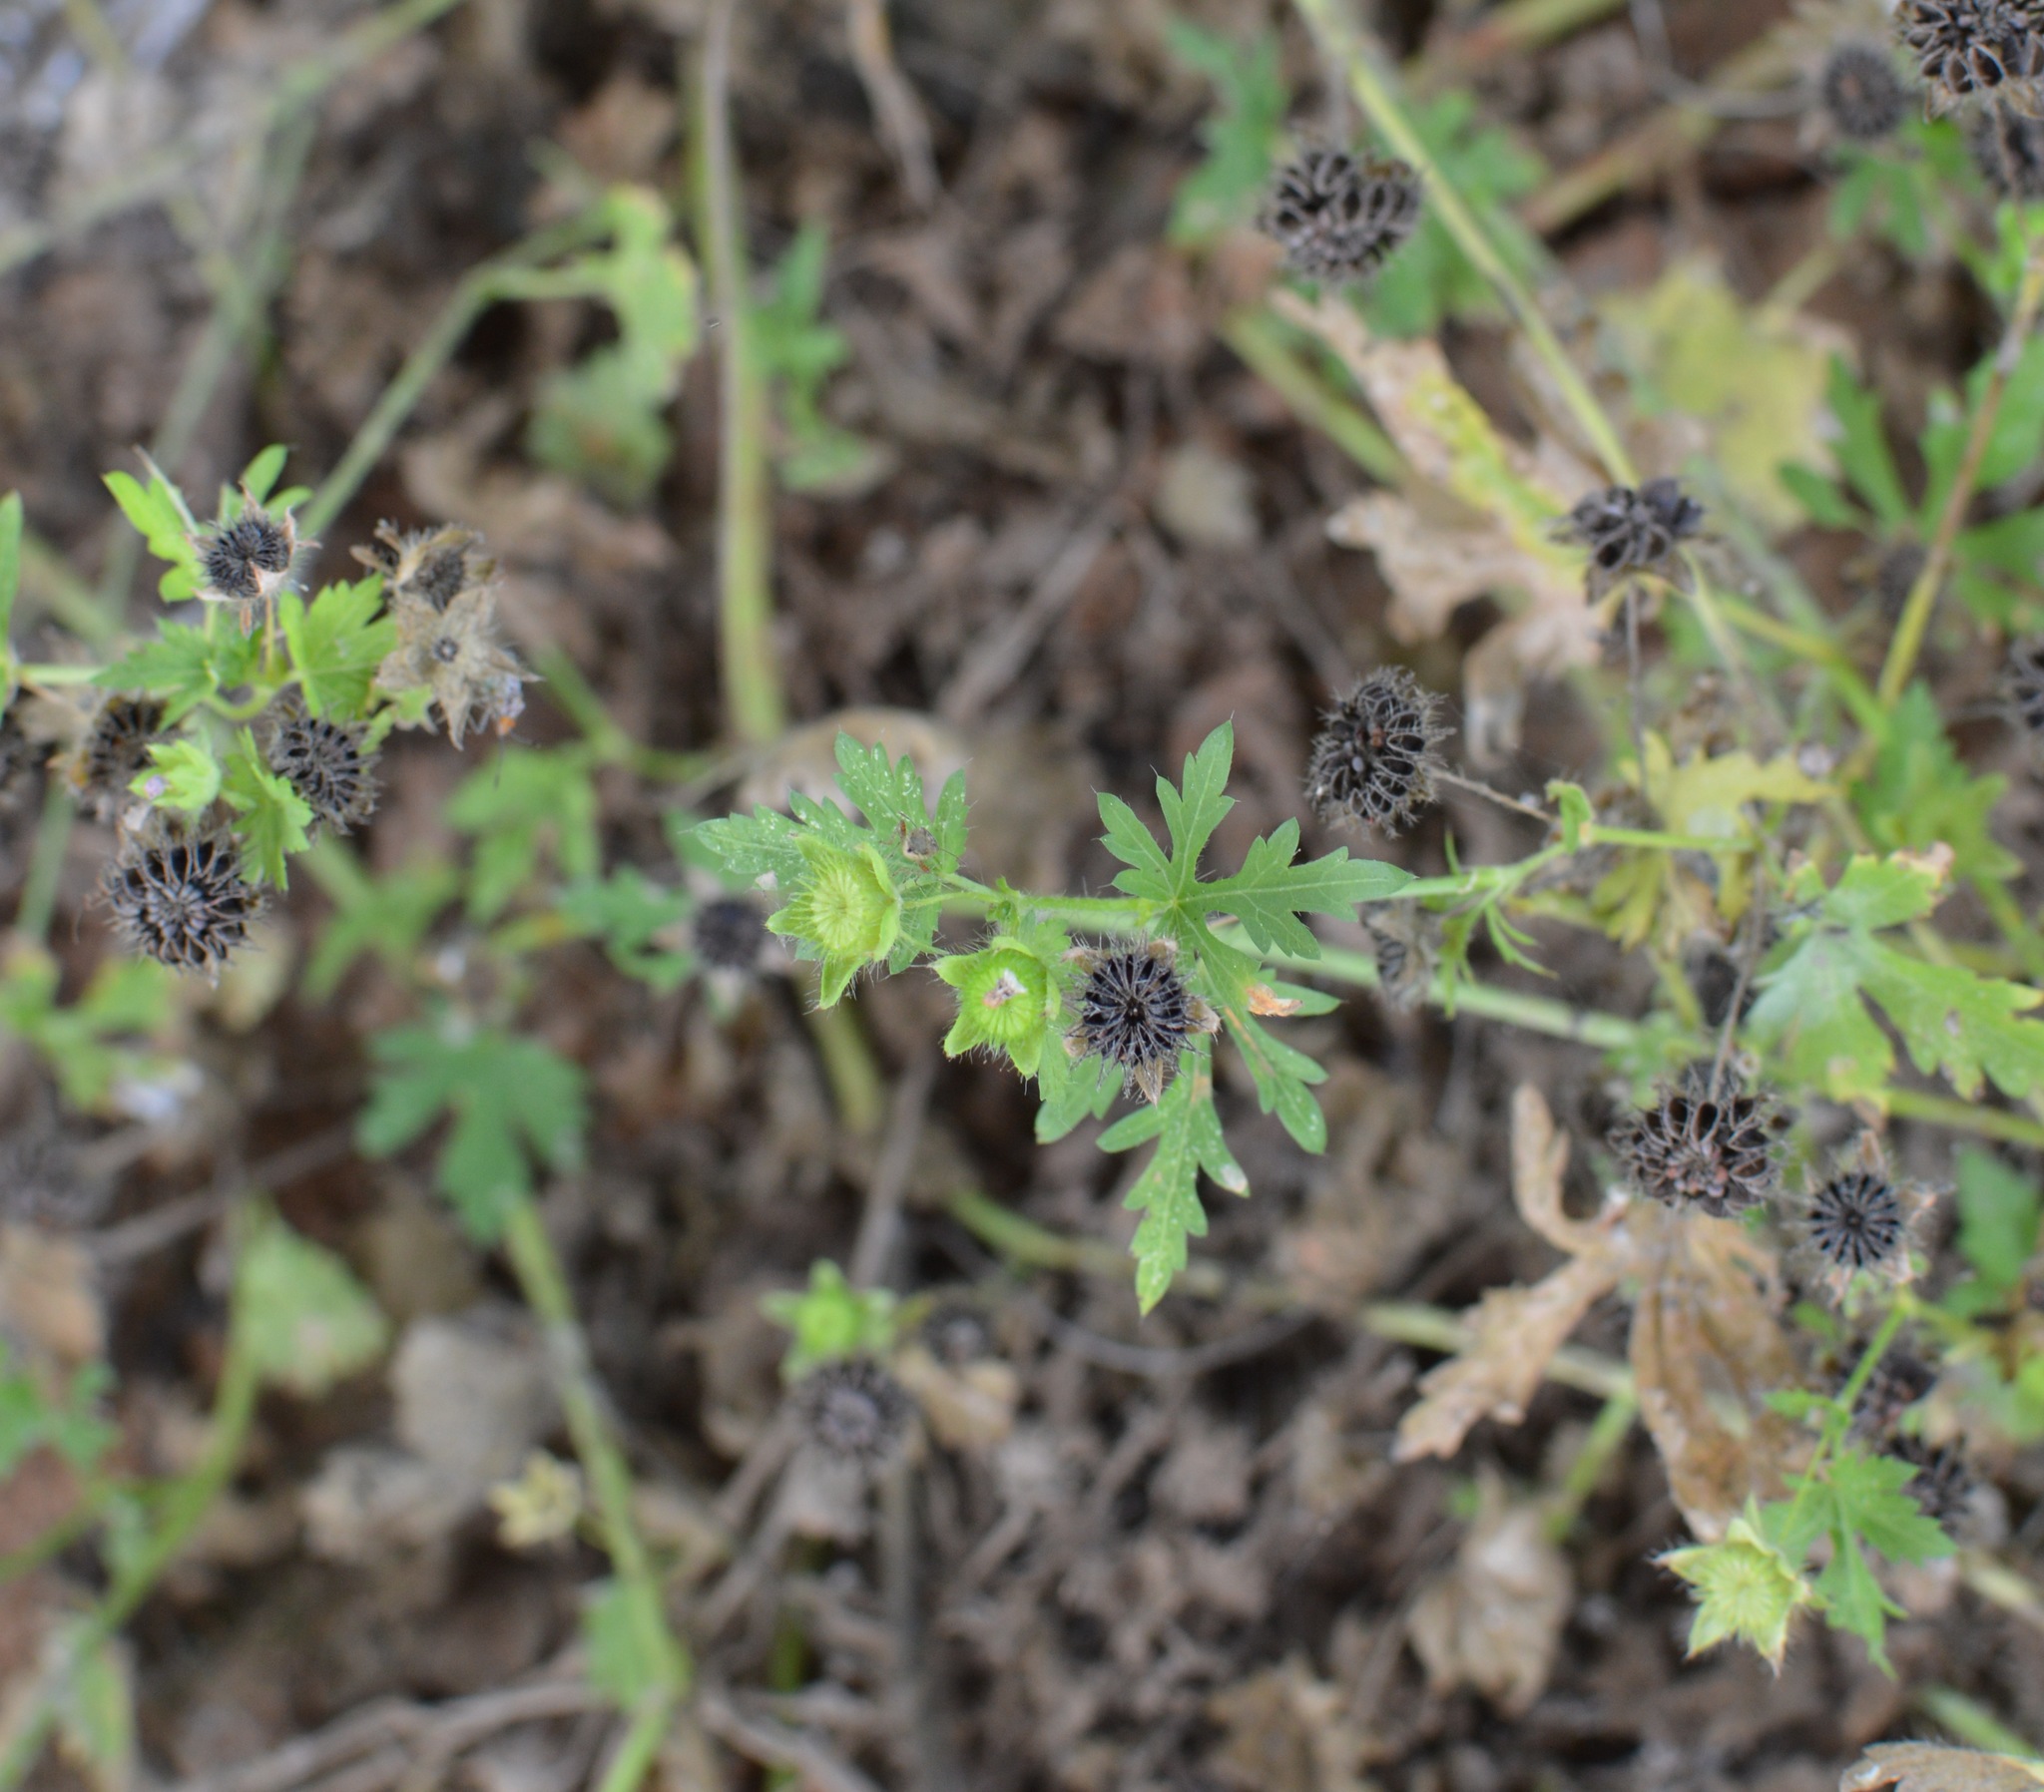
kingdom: Plantae
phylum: Tracheophyta
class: Magnoliopsida
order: Malvales
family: Malvaceae
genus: Modiola
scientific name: Modiola caroliniana
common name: Carolina bristlemallow
